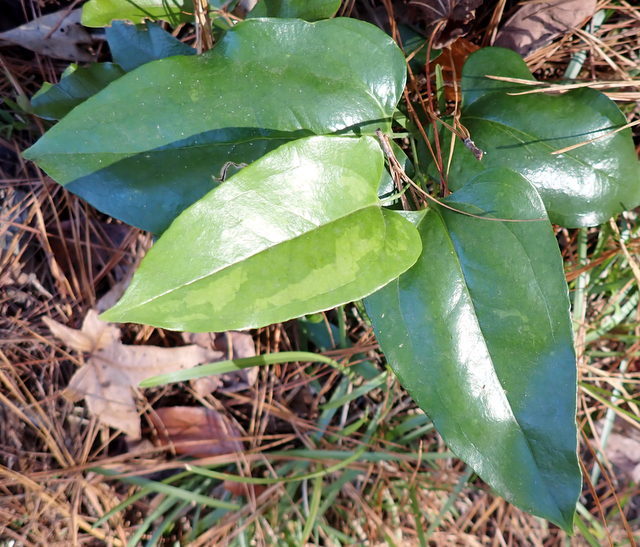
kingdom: Plantae
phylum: Tracheophyta
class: Liliopsida
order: Liliales
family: Smilacaceae
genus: Smilax
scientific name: Smilax maritima
